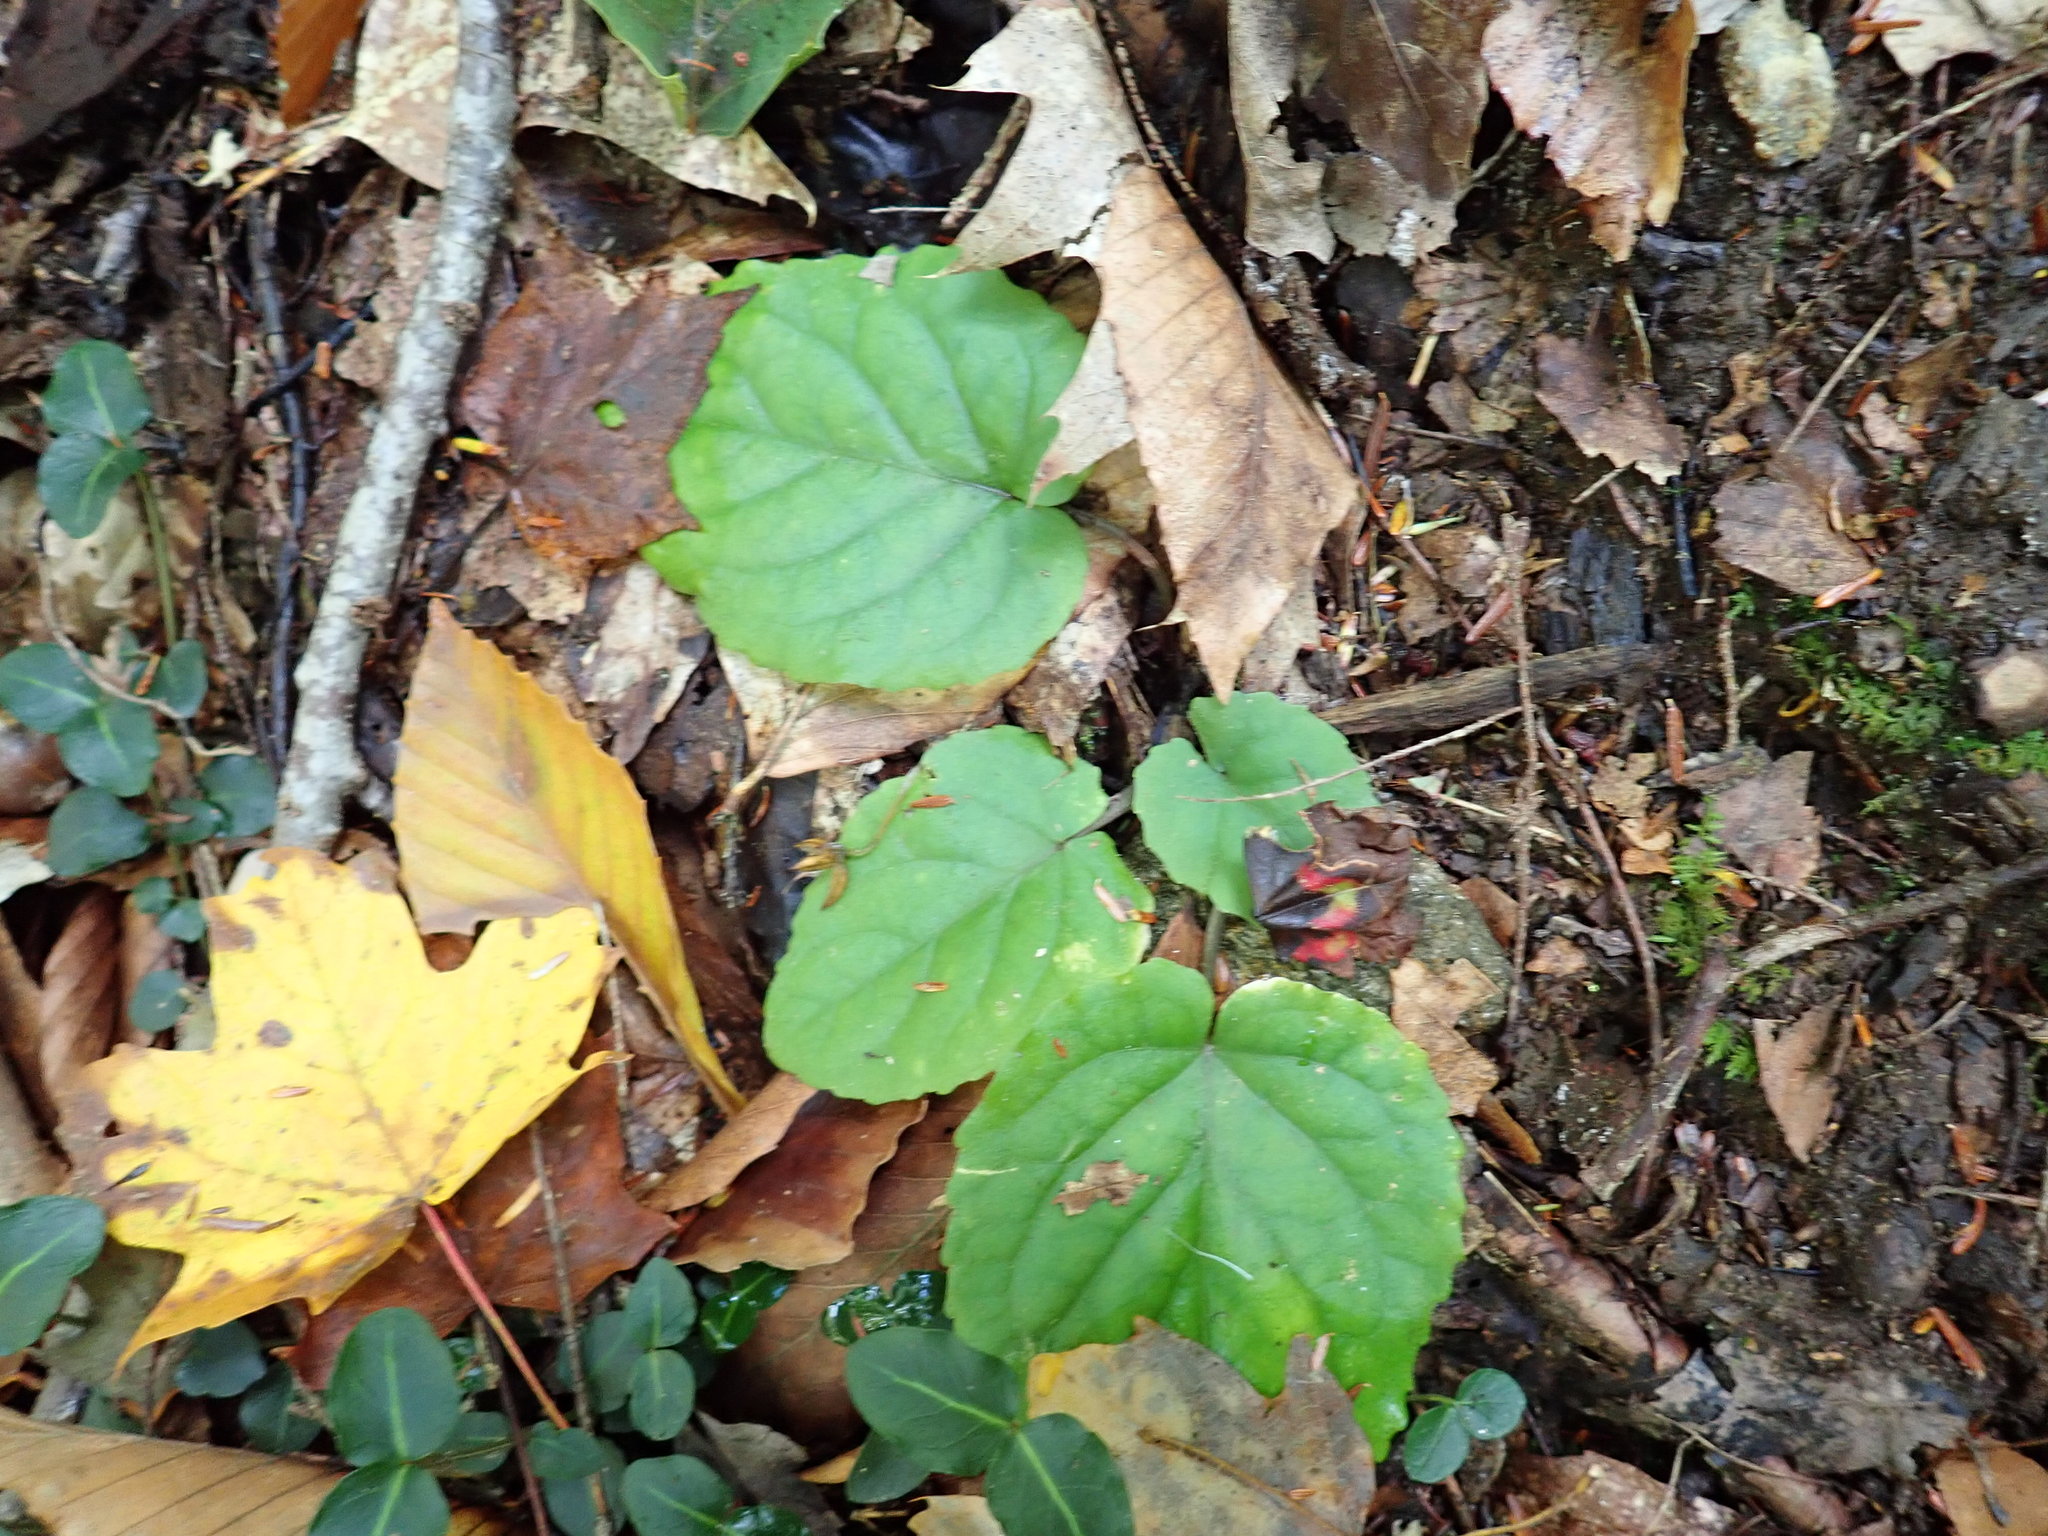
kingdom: Plantae
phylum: Tracheophyta
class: Magnoliopsida
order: Malpighiales
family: Violaceae
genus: Viola
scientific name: Viola rotundifolia
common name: Early yellow violet
